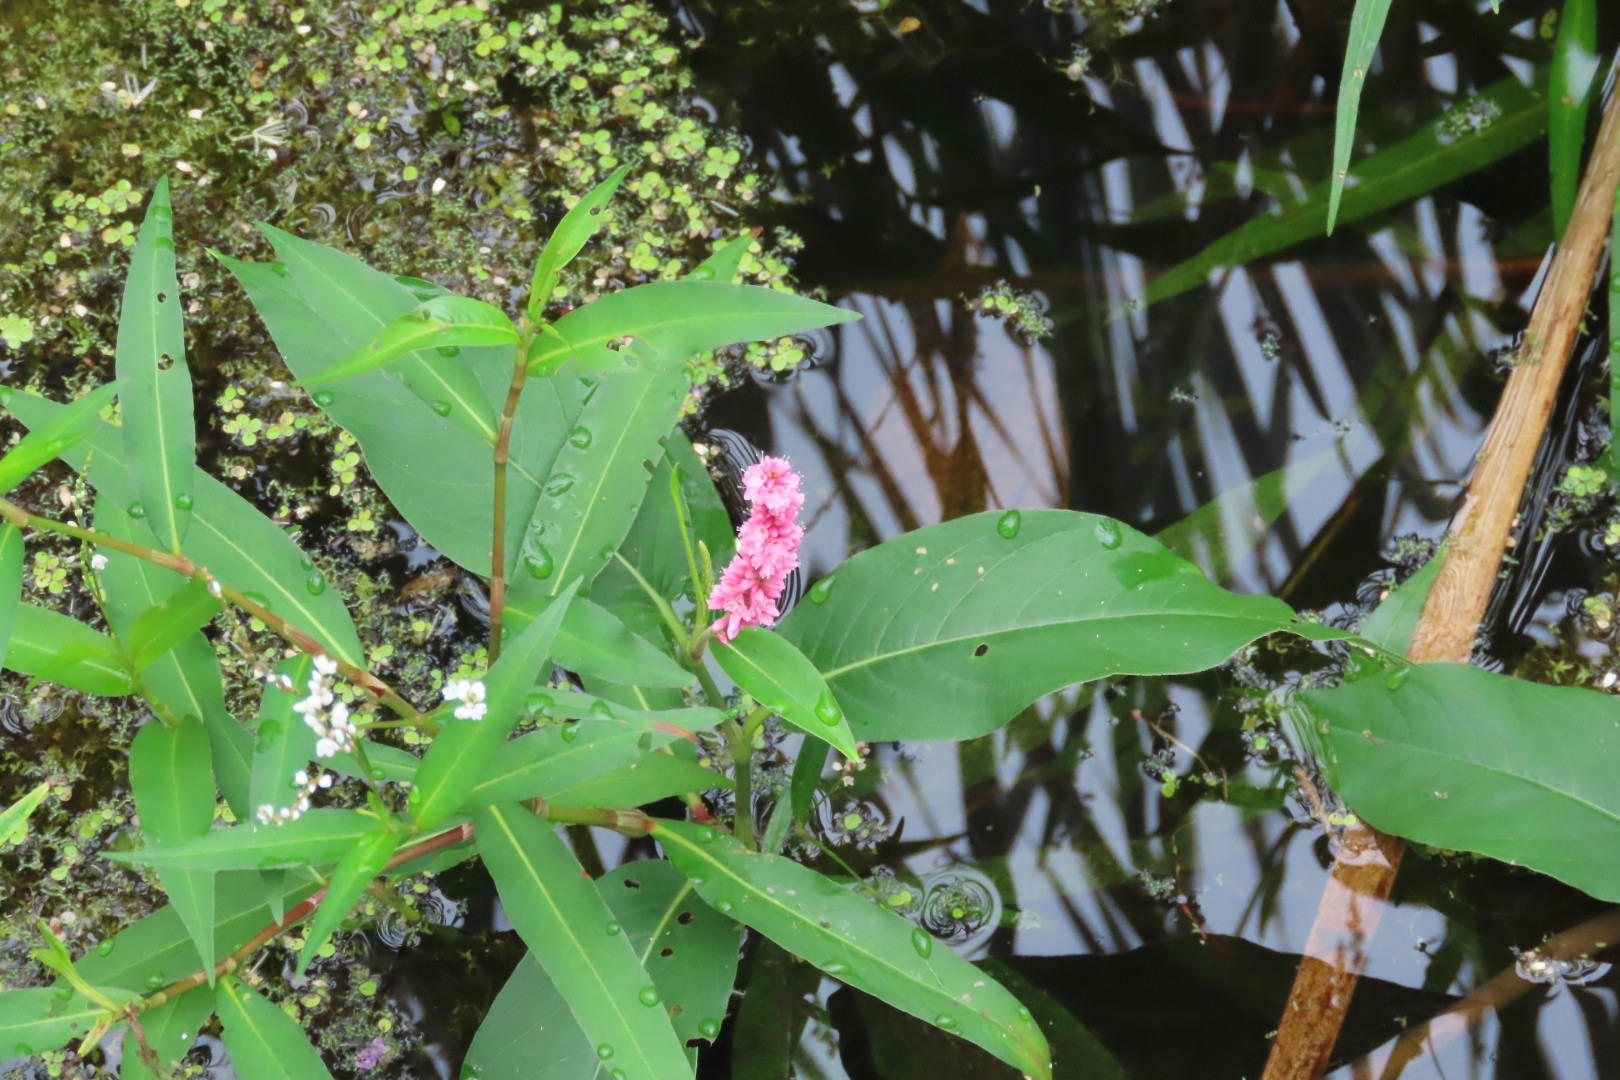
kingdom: Plantae
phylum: Tracheophyta
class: Magnoliopsida
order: Caryophyllales
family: Polygonaceae
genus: Persicaria
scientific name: Persicaria amphibia
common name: Amphibious bistort
